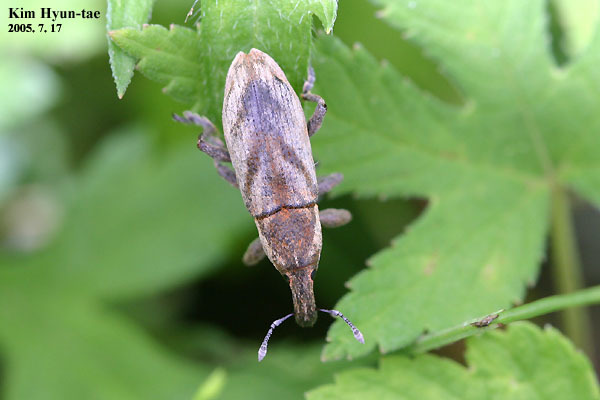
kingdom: Animalia
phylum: Arthropoda
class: Insecta
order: Coleoptera
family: Curculionidae
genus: Lixus
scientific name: Lixus
